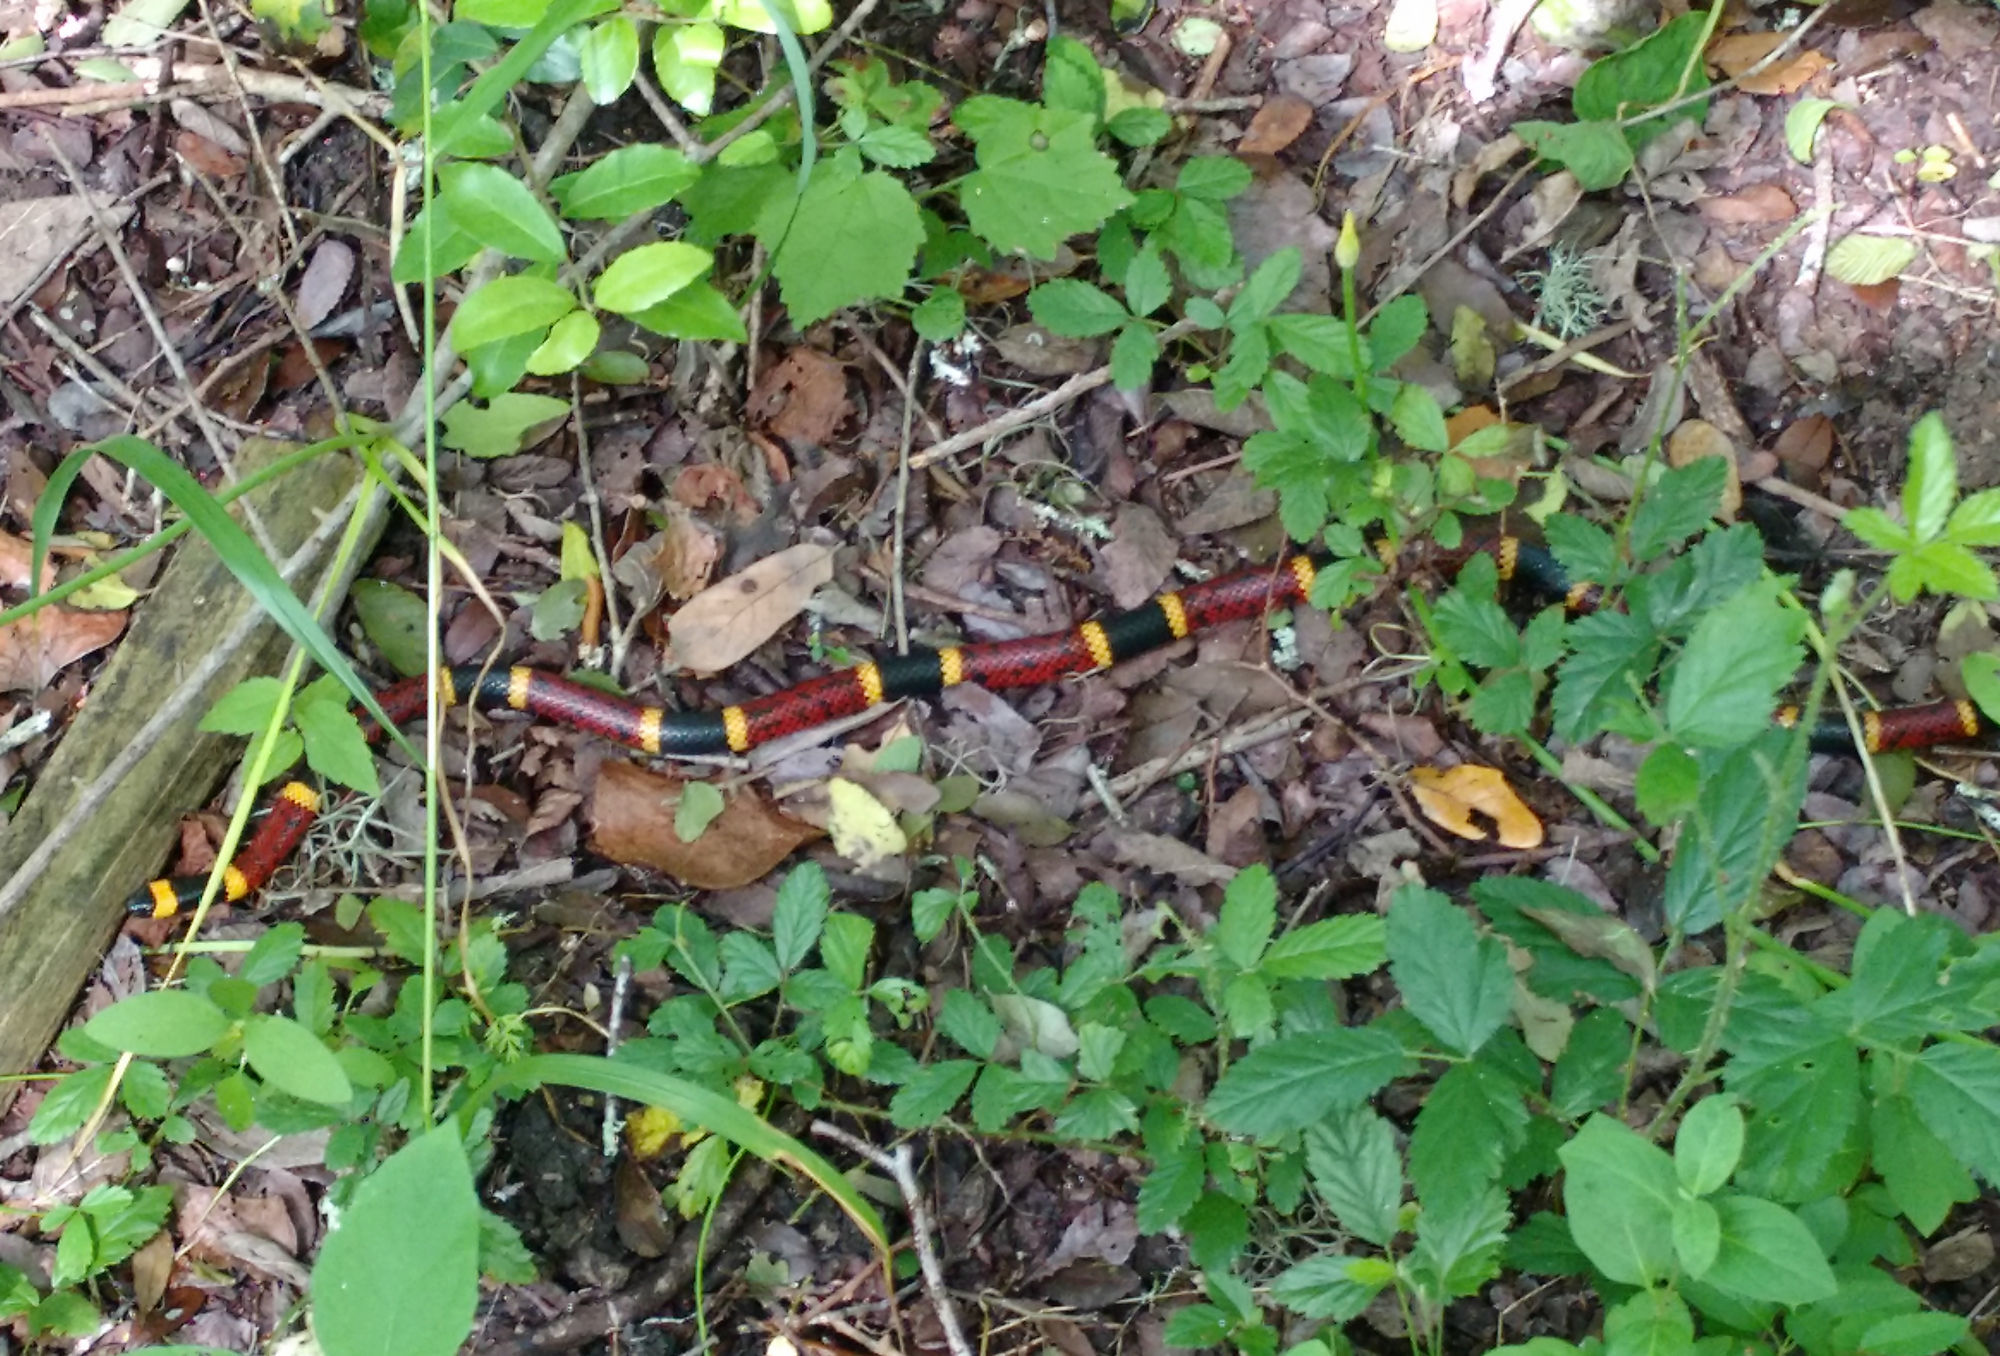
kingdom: Animalia
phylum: Chordata
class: Squamata
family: Elapidae
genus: Micrurus
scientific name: Micrurus tener
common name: Texas coral snake
